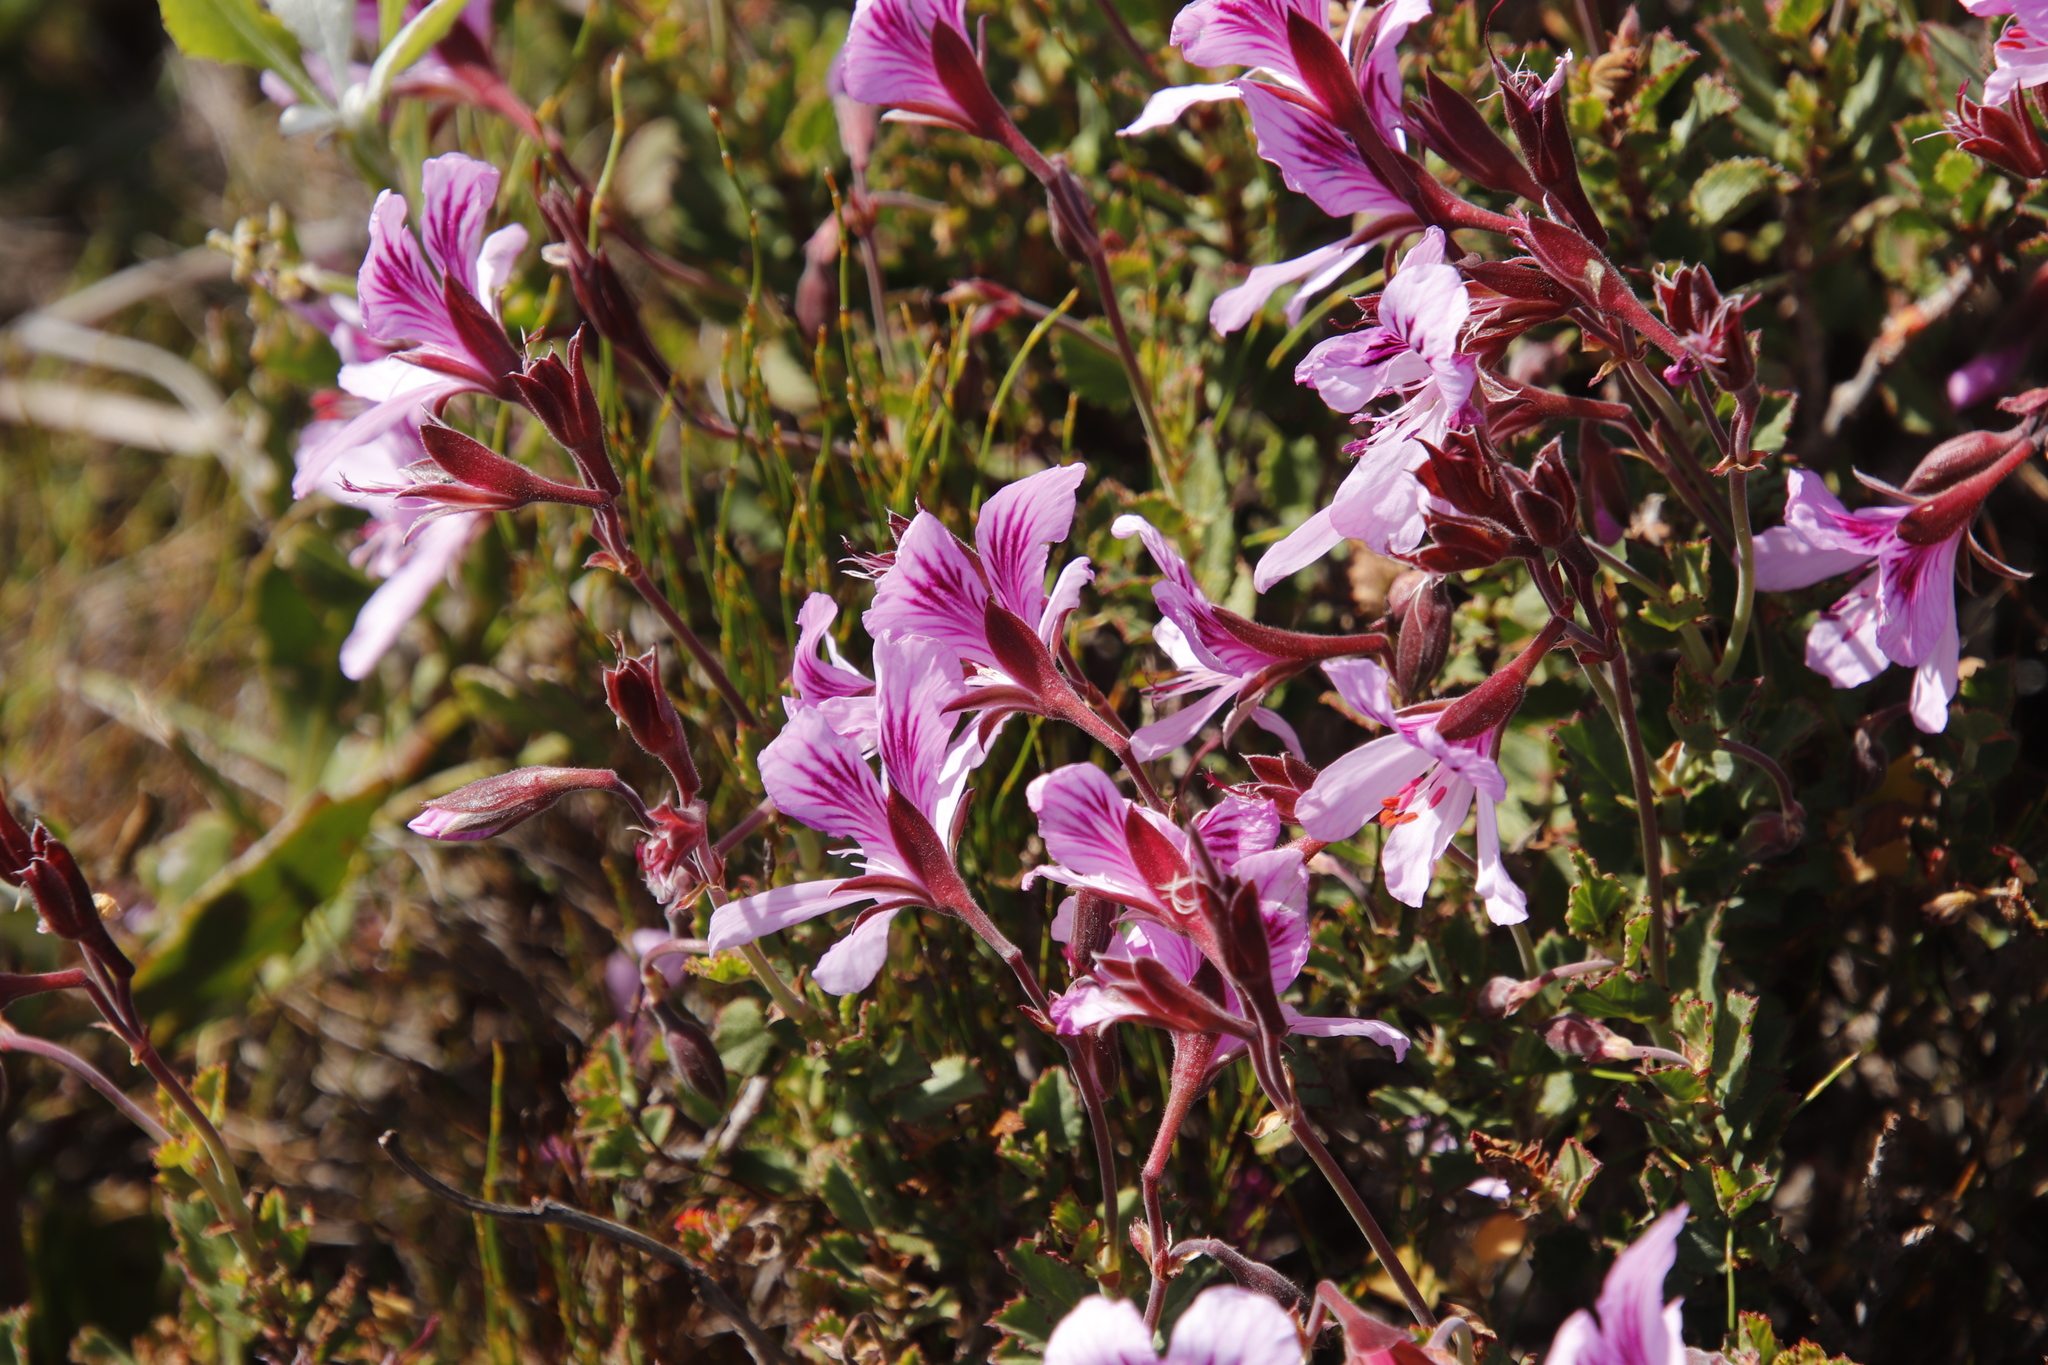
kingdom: Plantae
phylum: Tracheophyta
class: Magnoliopsida
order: Geraniales
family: Geraniaceae
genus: Pelargonium
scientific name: Pelargonium betulinum
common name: Birch-leaf pelargonium
